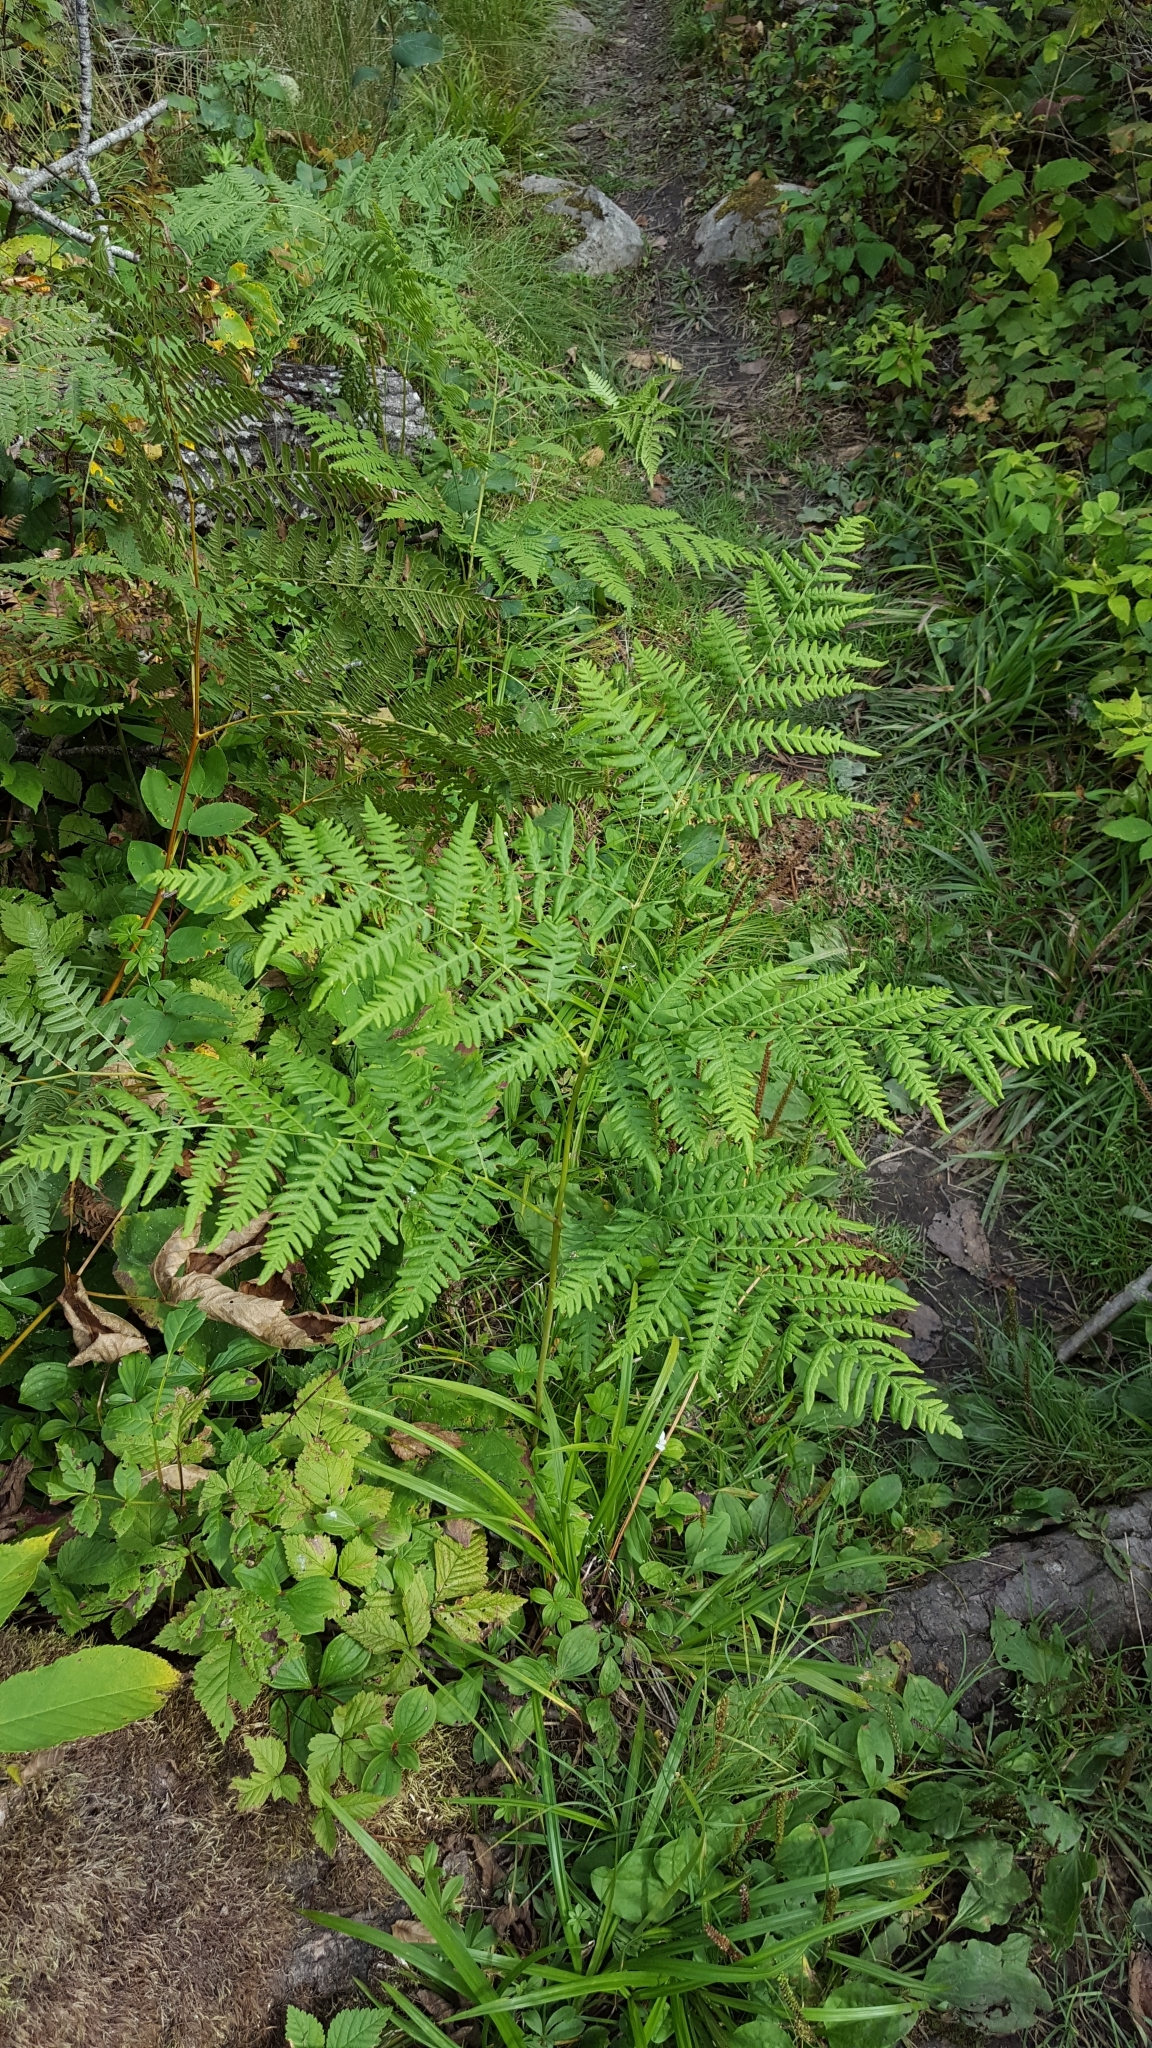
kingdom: Plantae
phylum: Tracheophyta
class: Polypodiopsida
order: Polypodiales
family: Dennstaedtiaceae
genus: Pteridium
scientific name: Pteridium aquilinum
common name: Bracken
